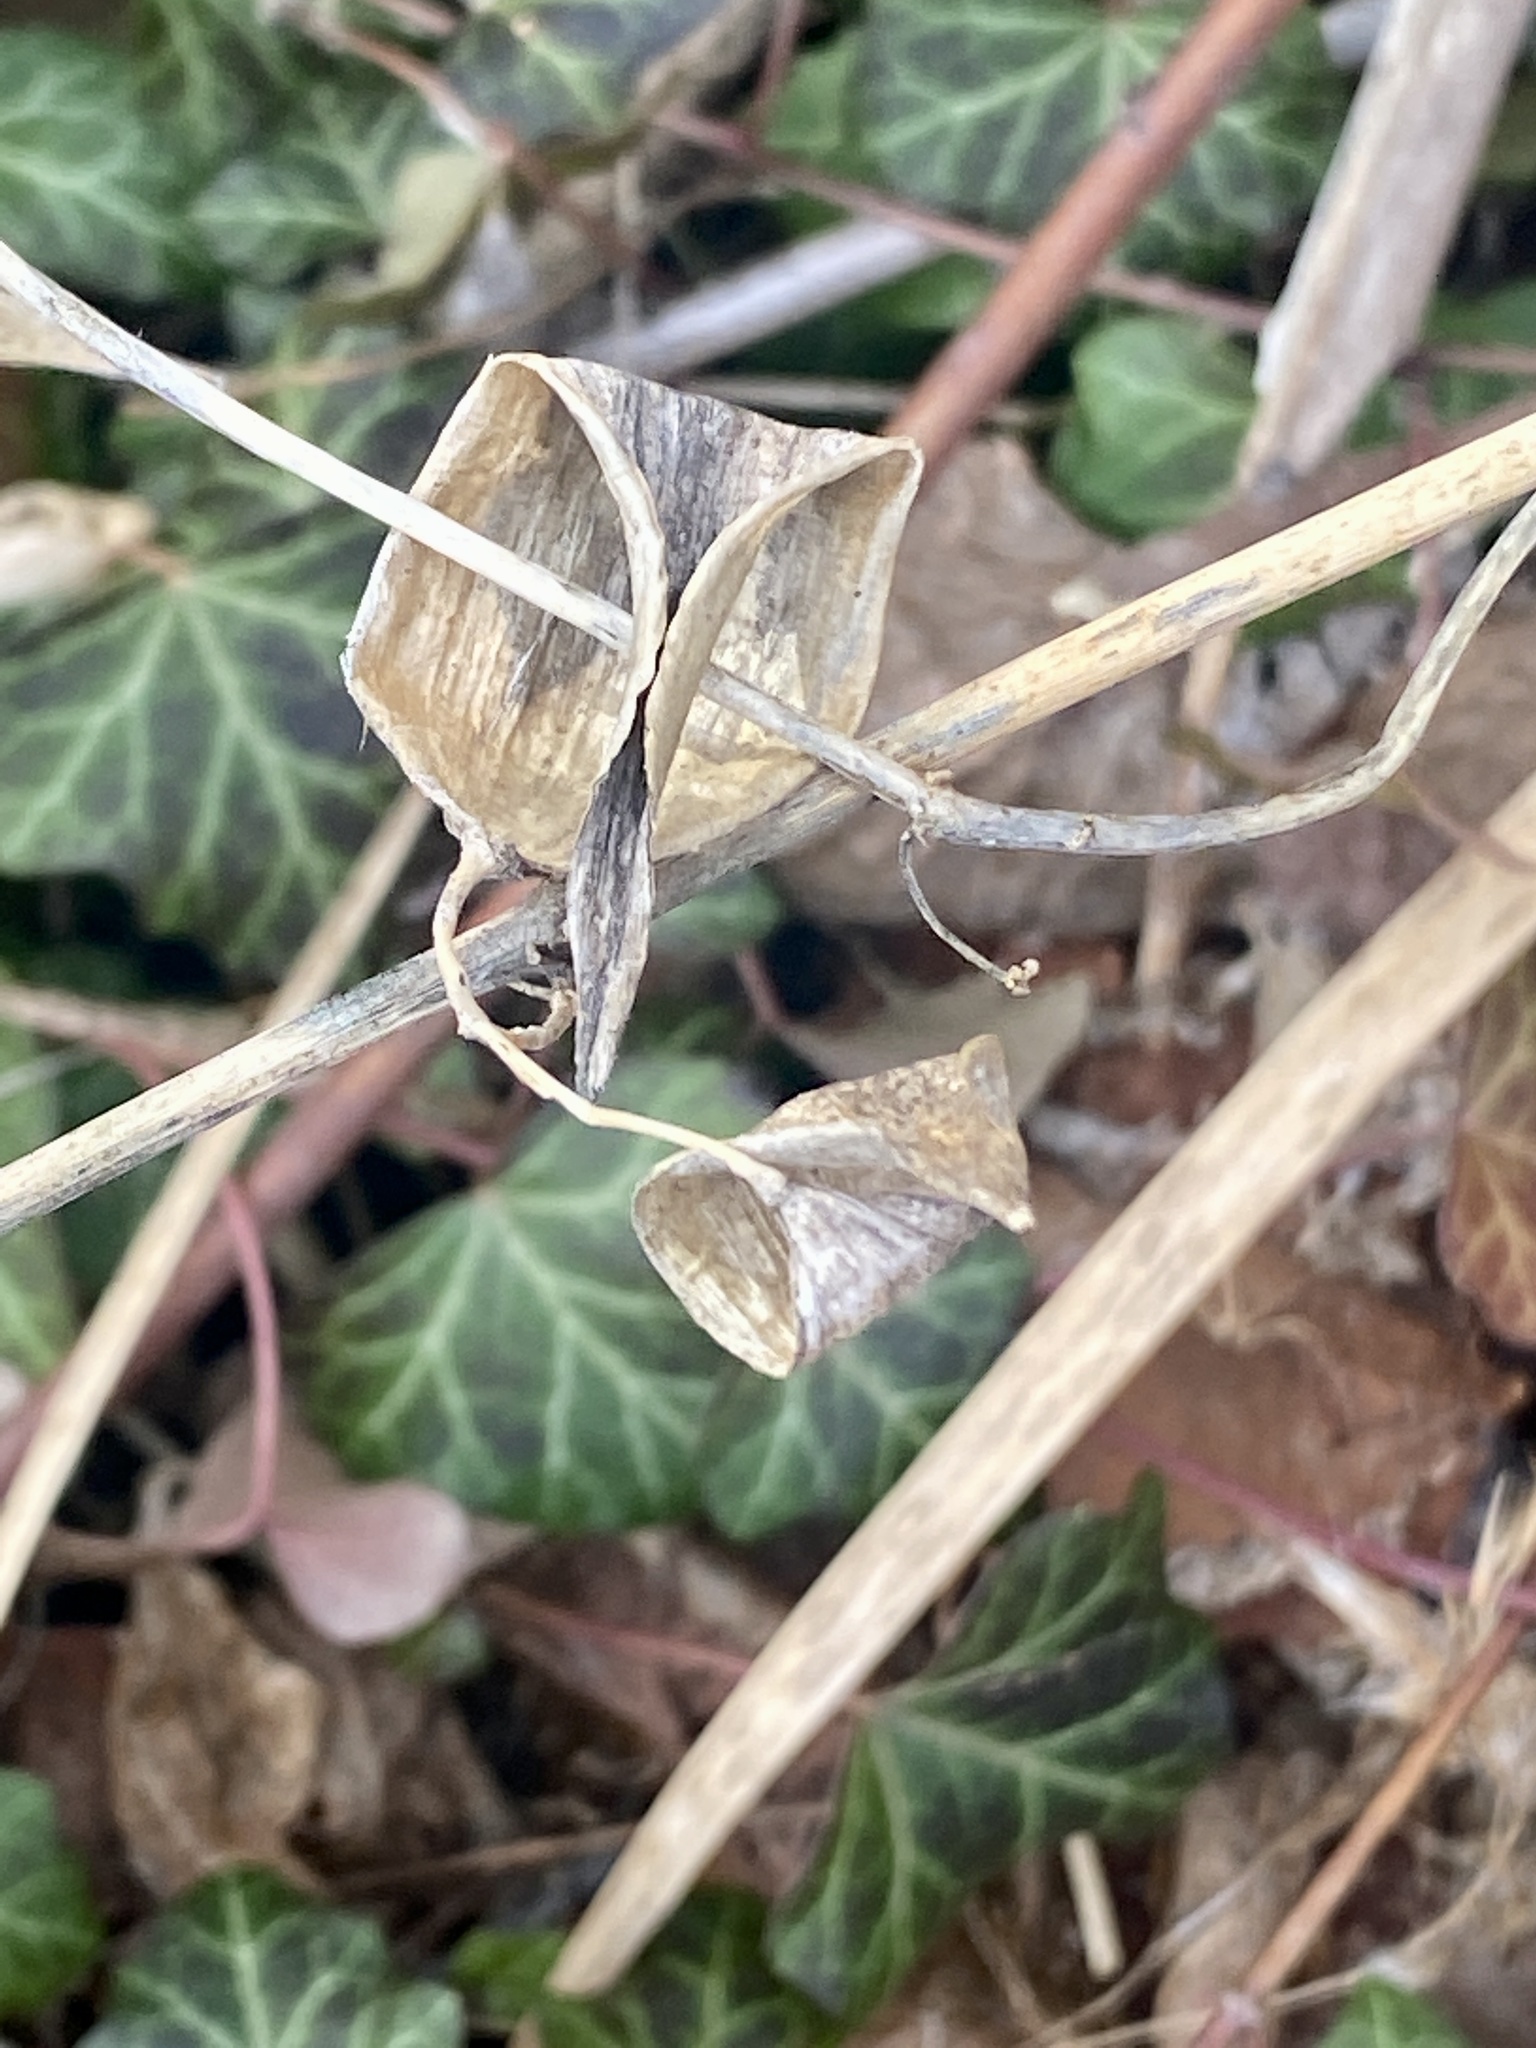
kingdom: Plantae
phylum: Tracheophyta
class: Magnoliopsida
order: Gentianales
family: Apocynaceae
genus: Vincetoxicum
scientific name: Vincetoxicum nigrum
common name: Black swallow-wort
